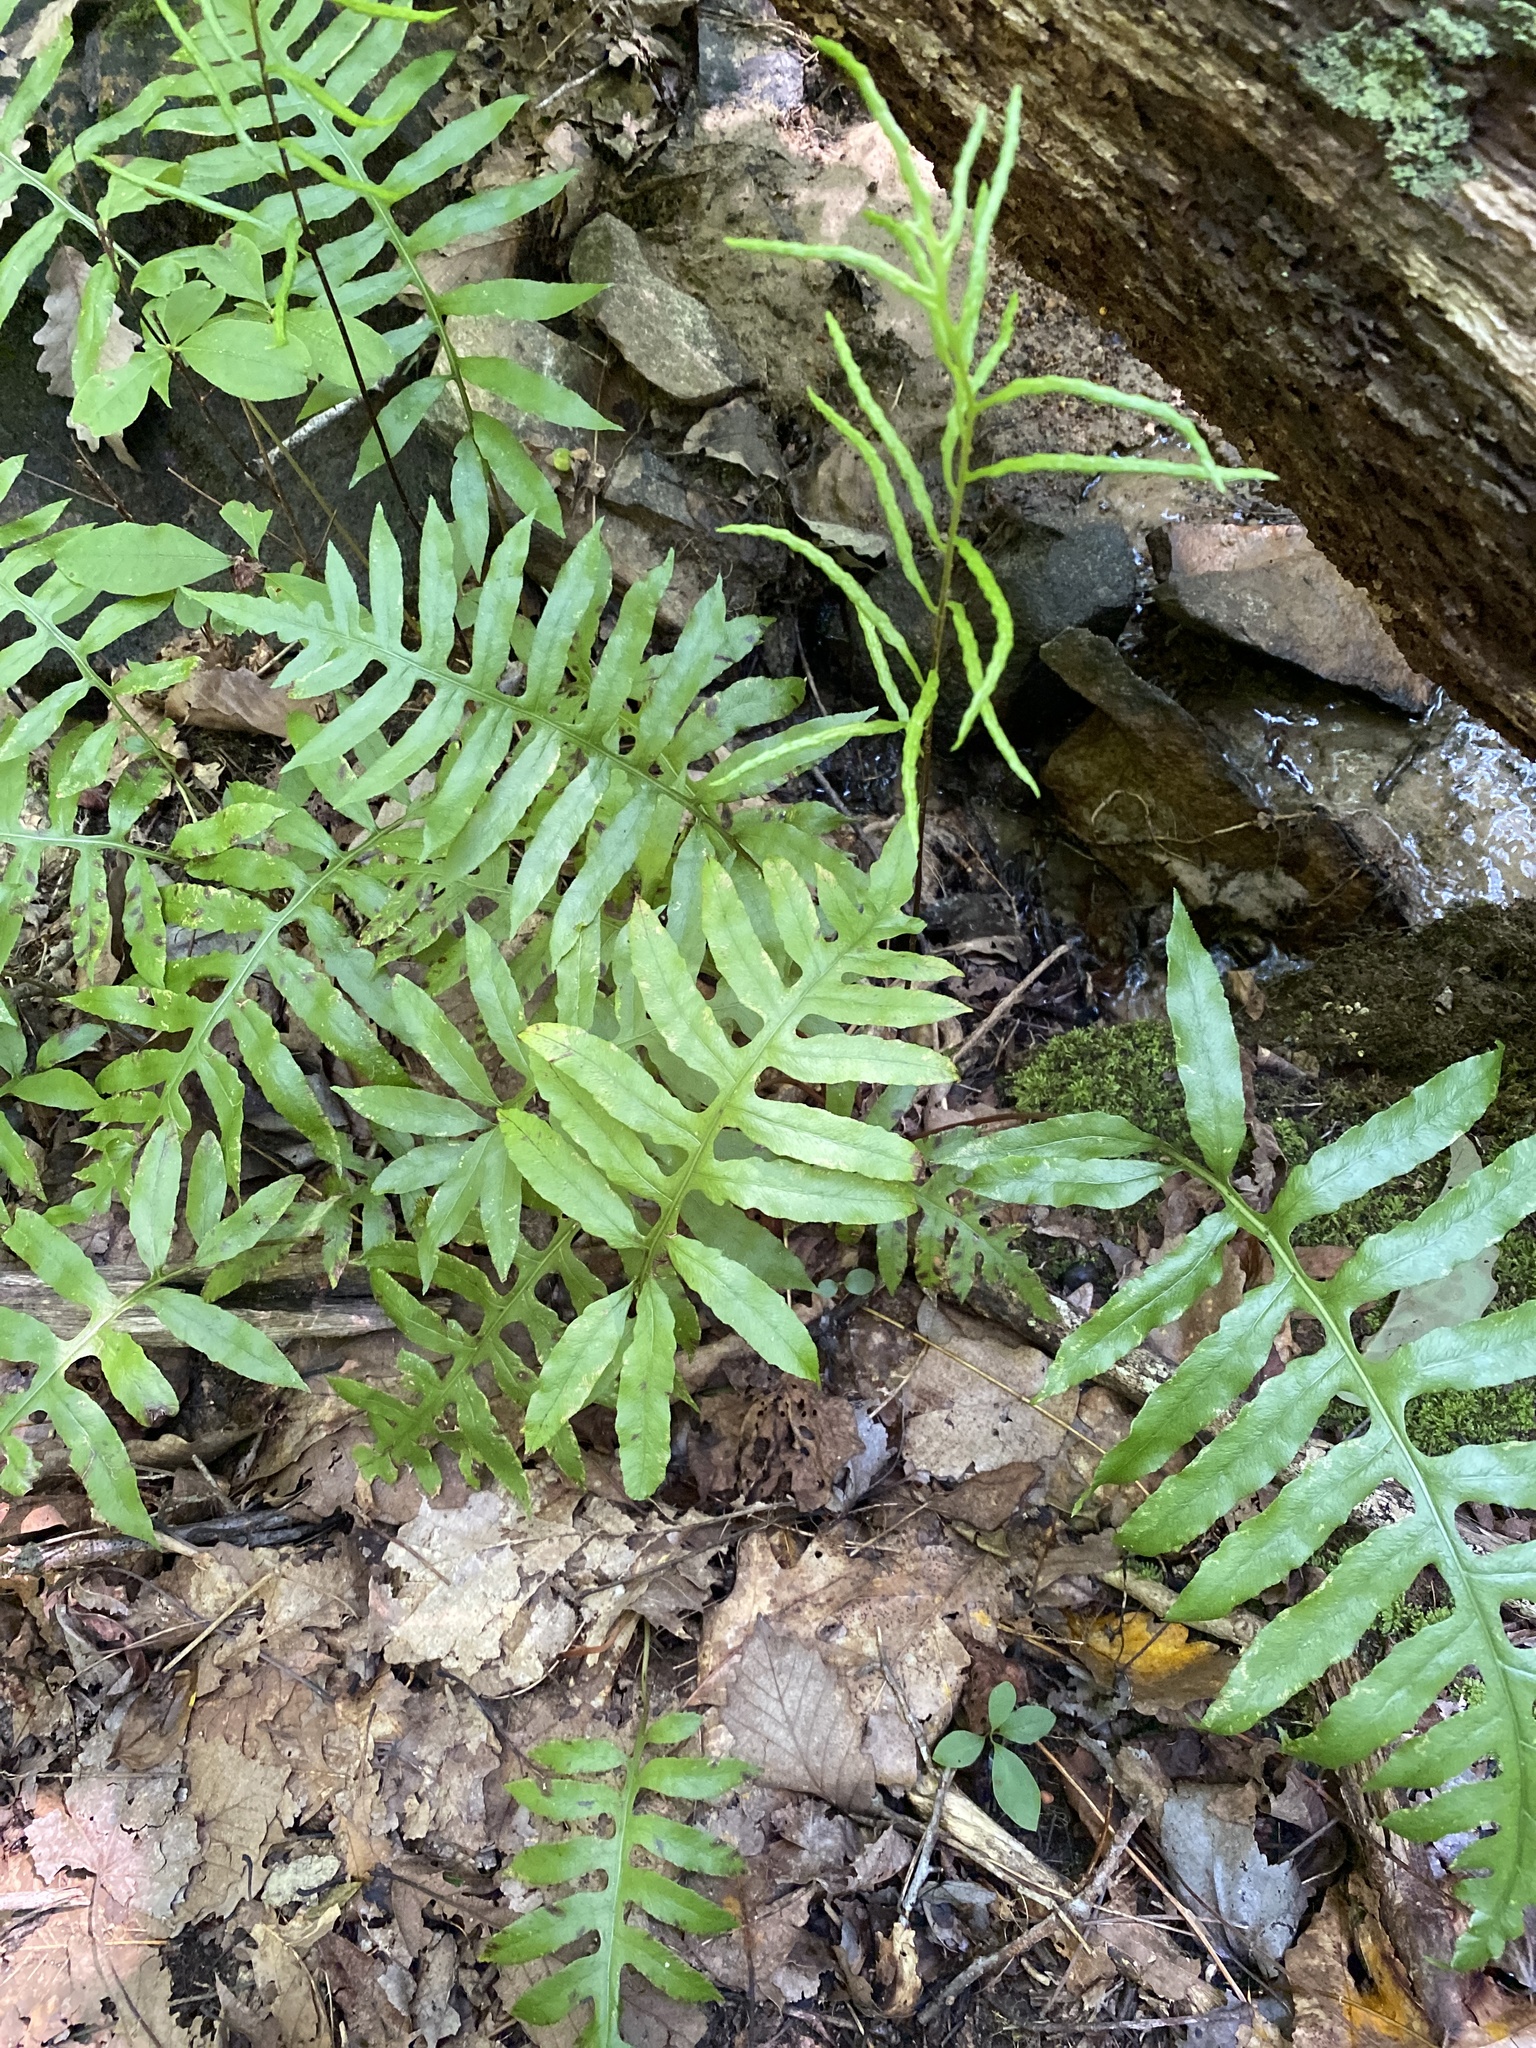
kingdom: Plantae
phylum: Tracheophyta
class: Polypodiopsida
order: Polypodiales
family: Blechnaceae
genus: Lorinseria
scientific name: Lorinseria areolata
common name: Dwarf chain fern
